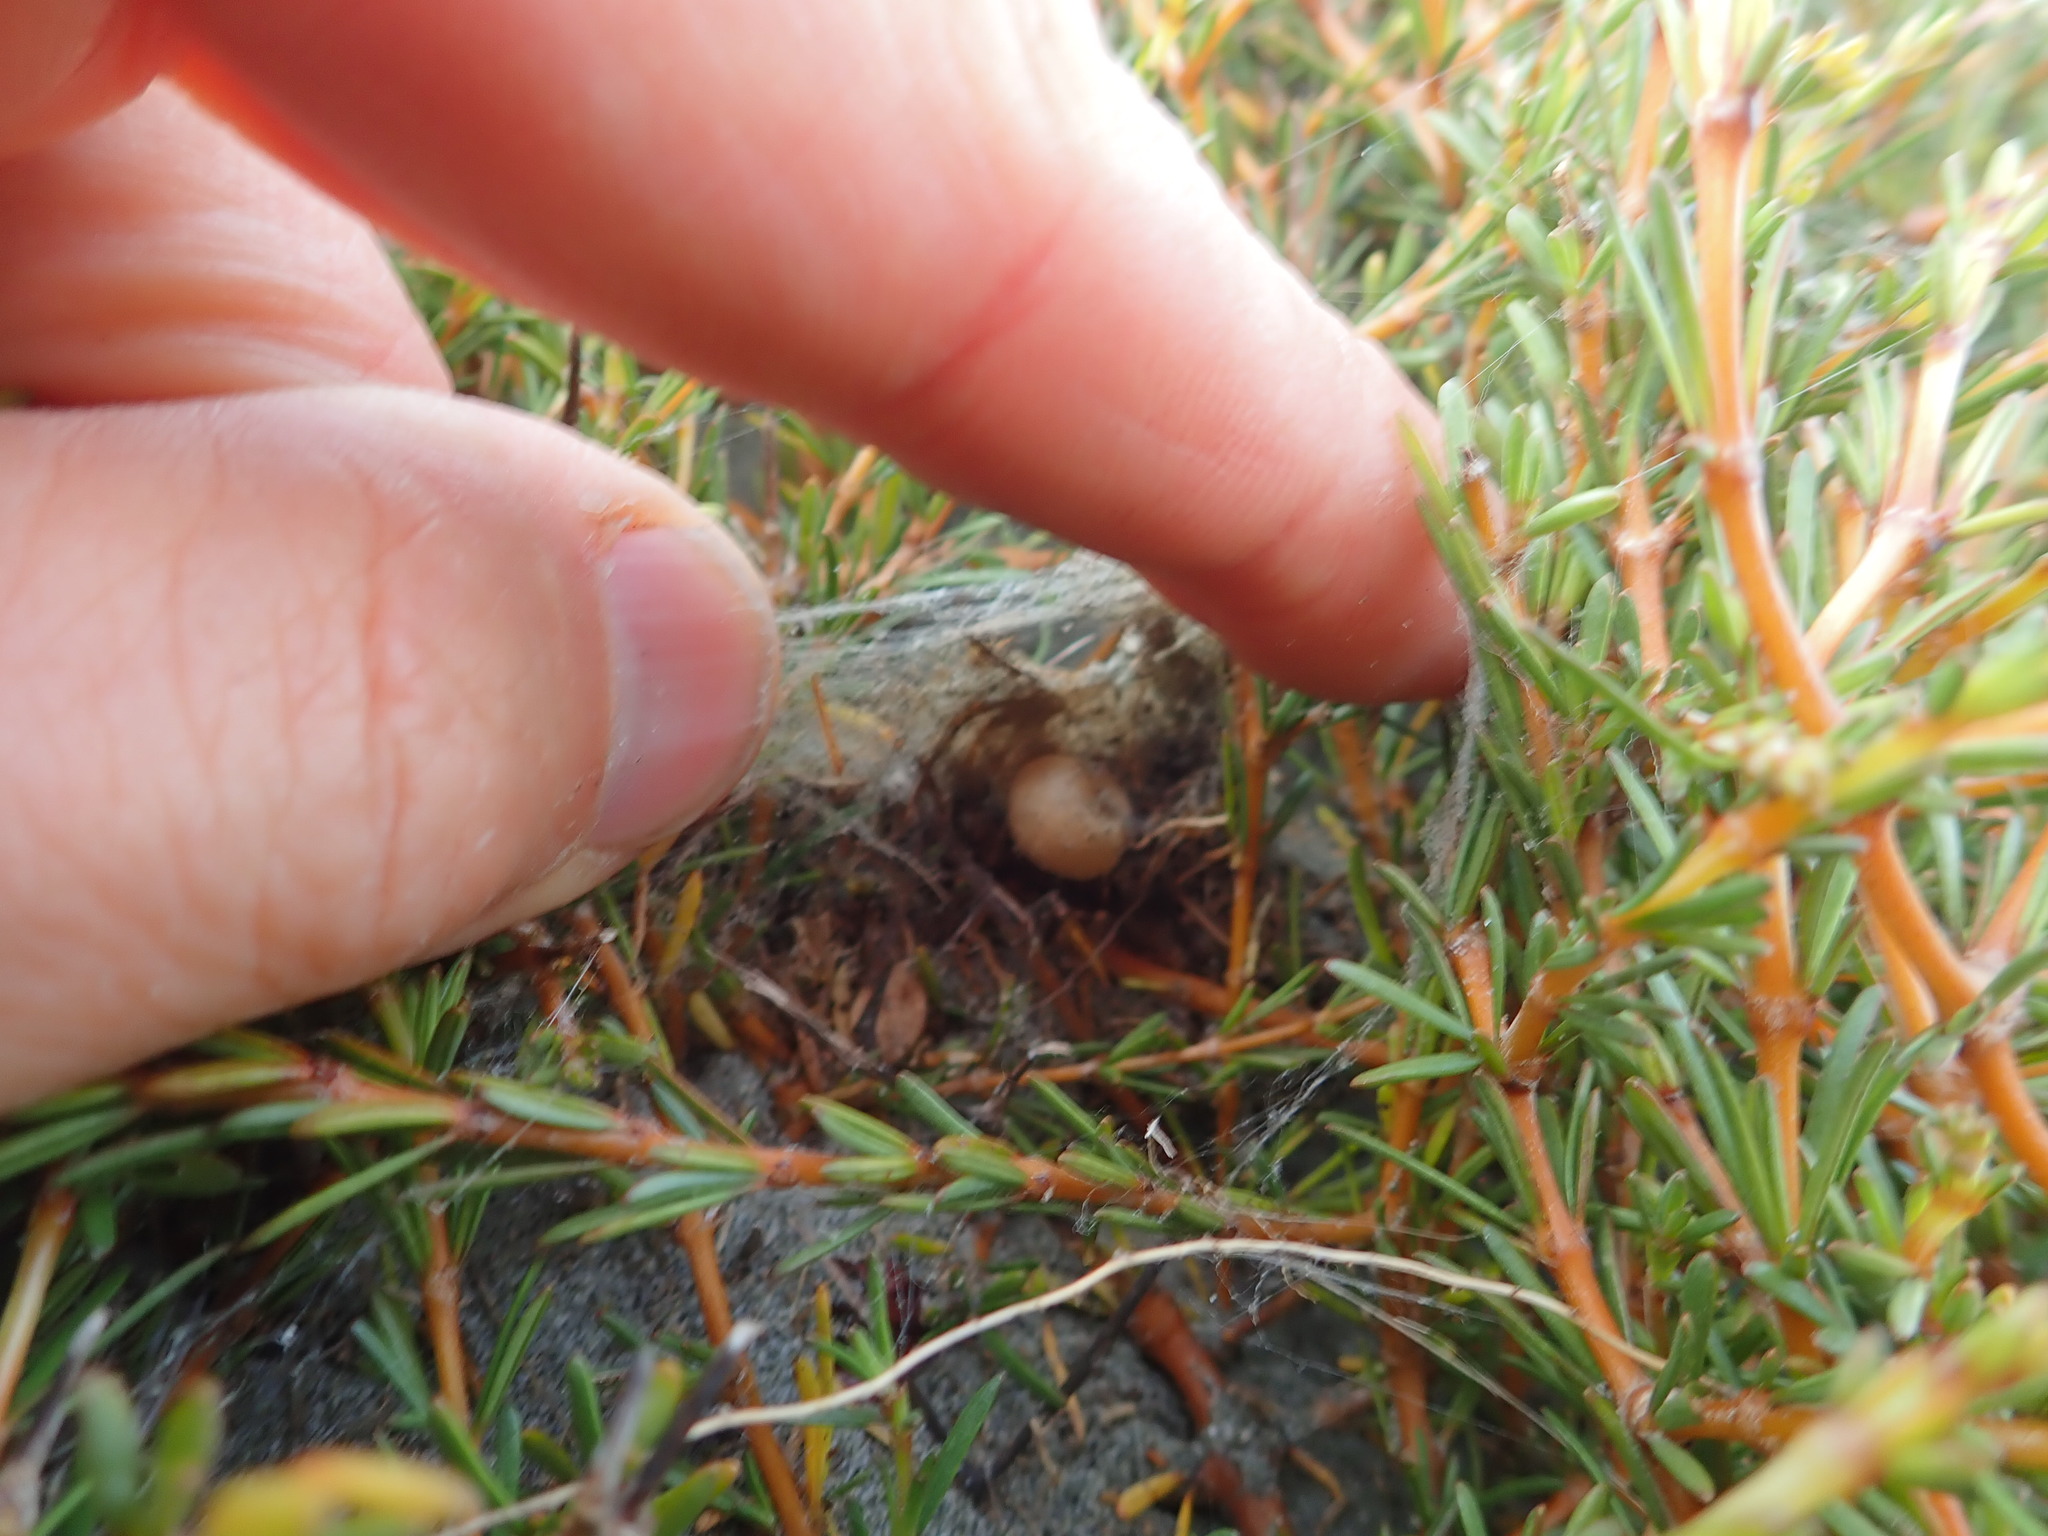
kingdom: Plantae
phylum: Tracheophyta
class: Magnoliopsida
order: Gentianales
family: Rubiaceae
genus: Coprosma
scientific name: Coprosma acerosa
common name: Sand coprosma
